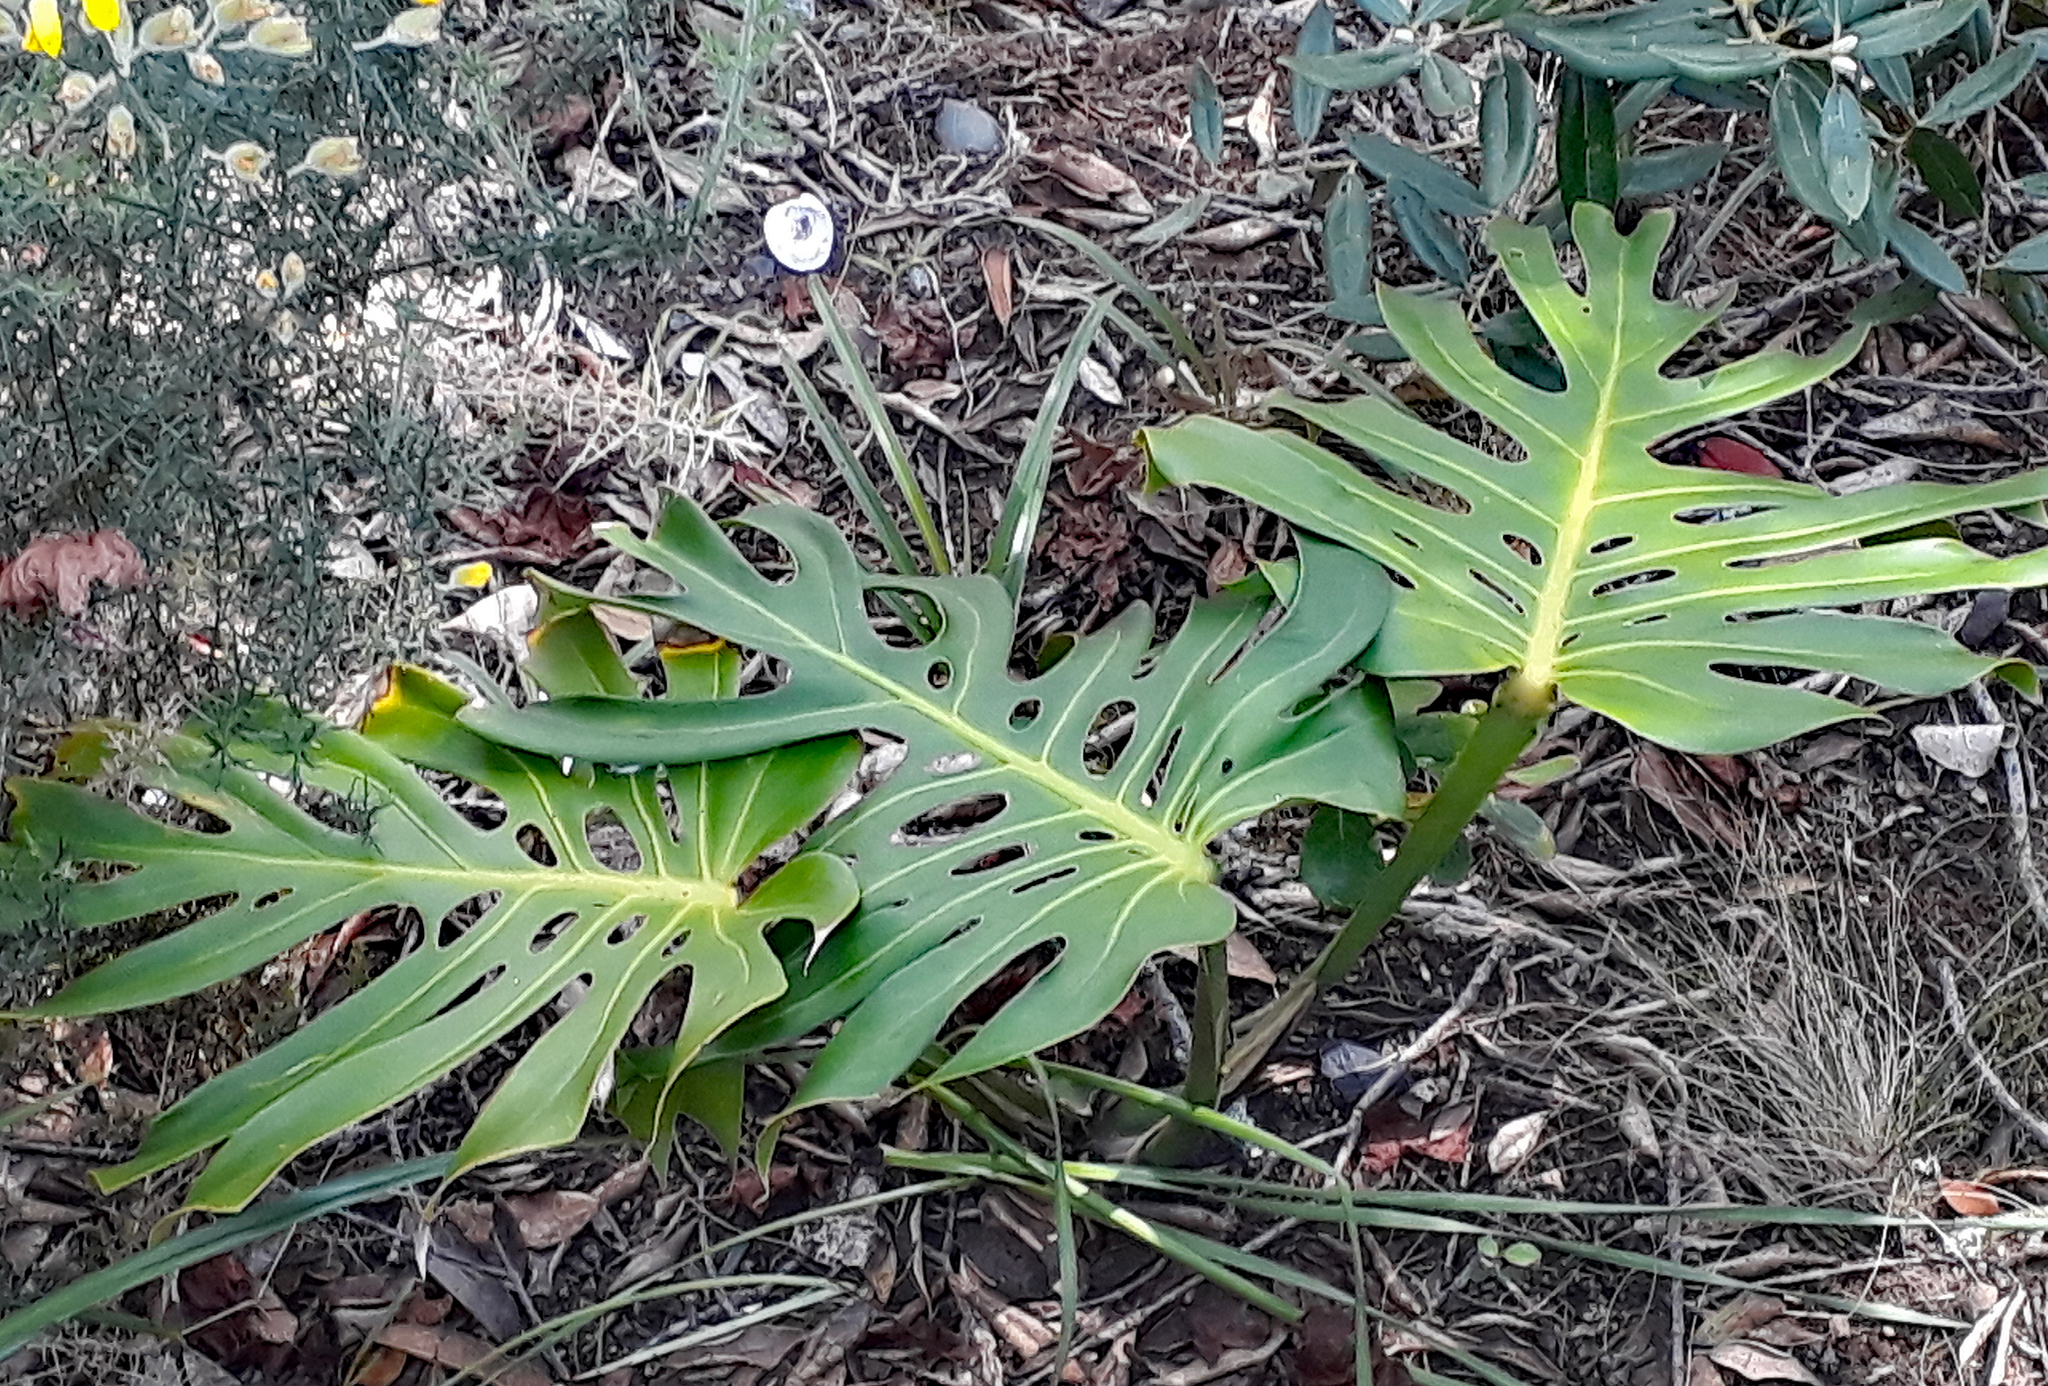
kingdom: Plantae
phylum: Tracheophyta
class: Liliopsida
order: Alismatales
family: Araceae
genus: Monstera
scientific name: Monstera deliciosa
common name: Cut-leaf-philodendron
